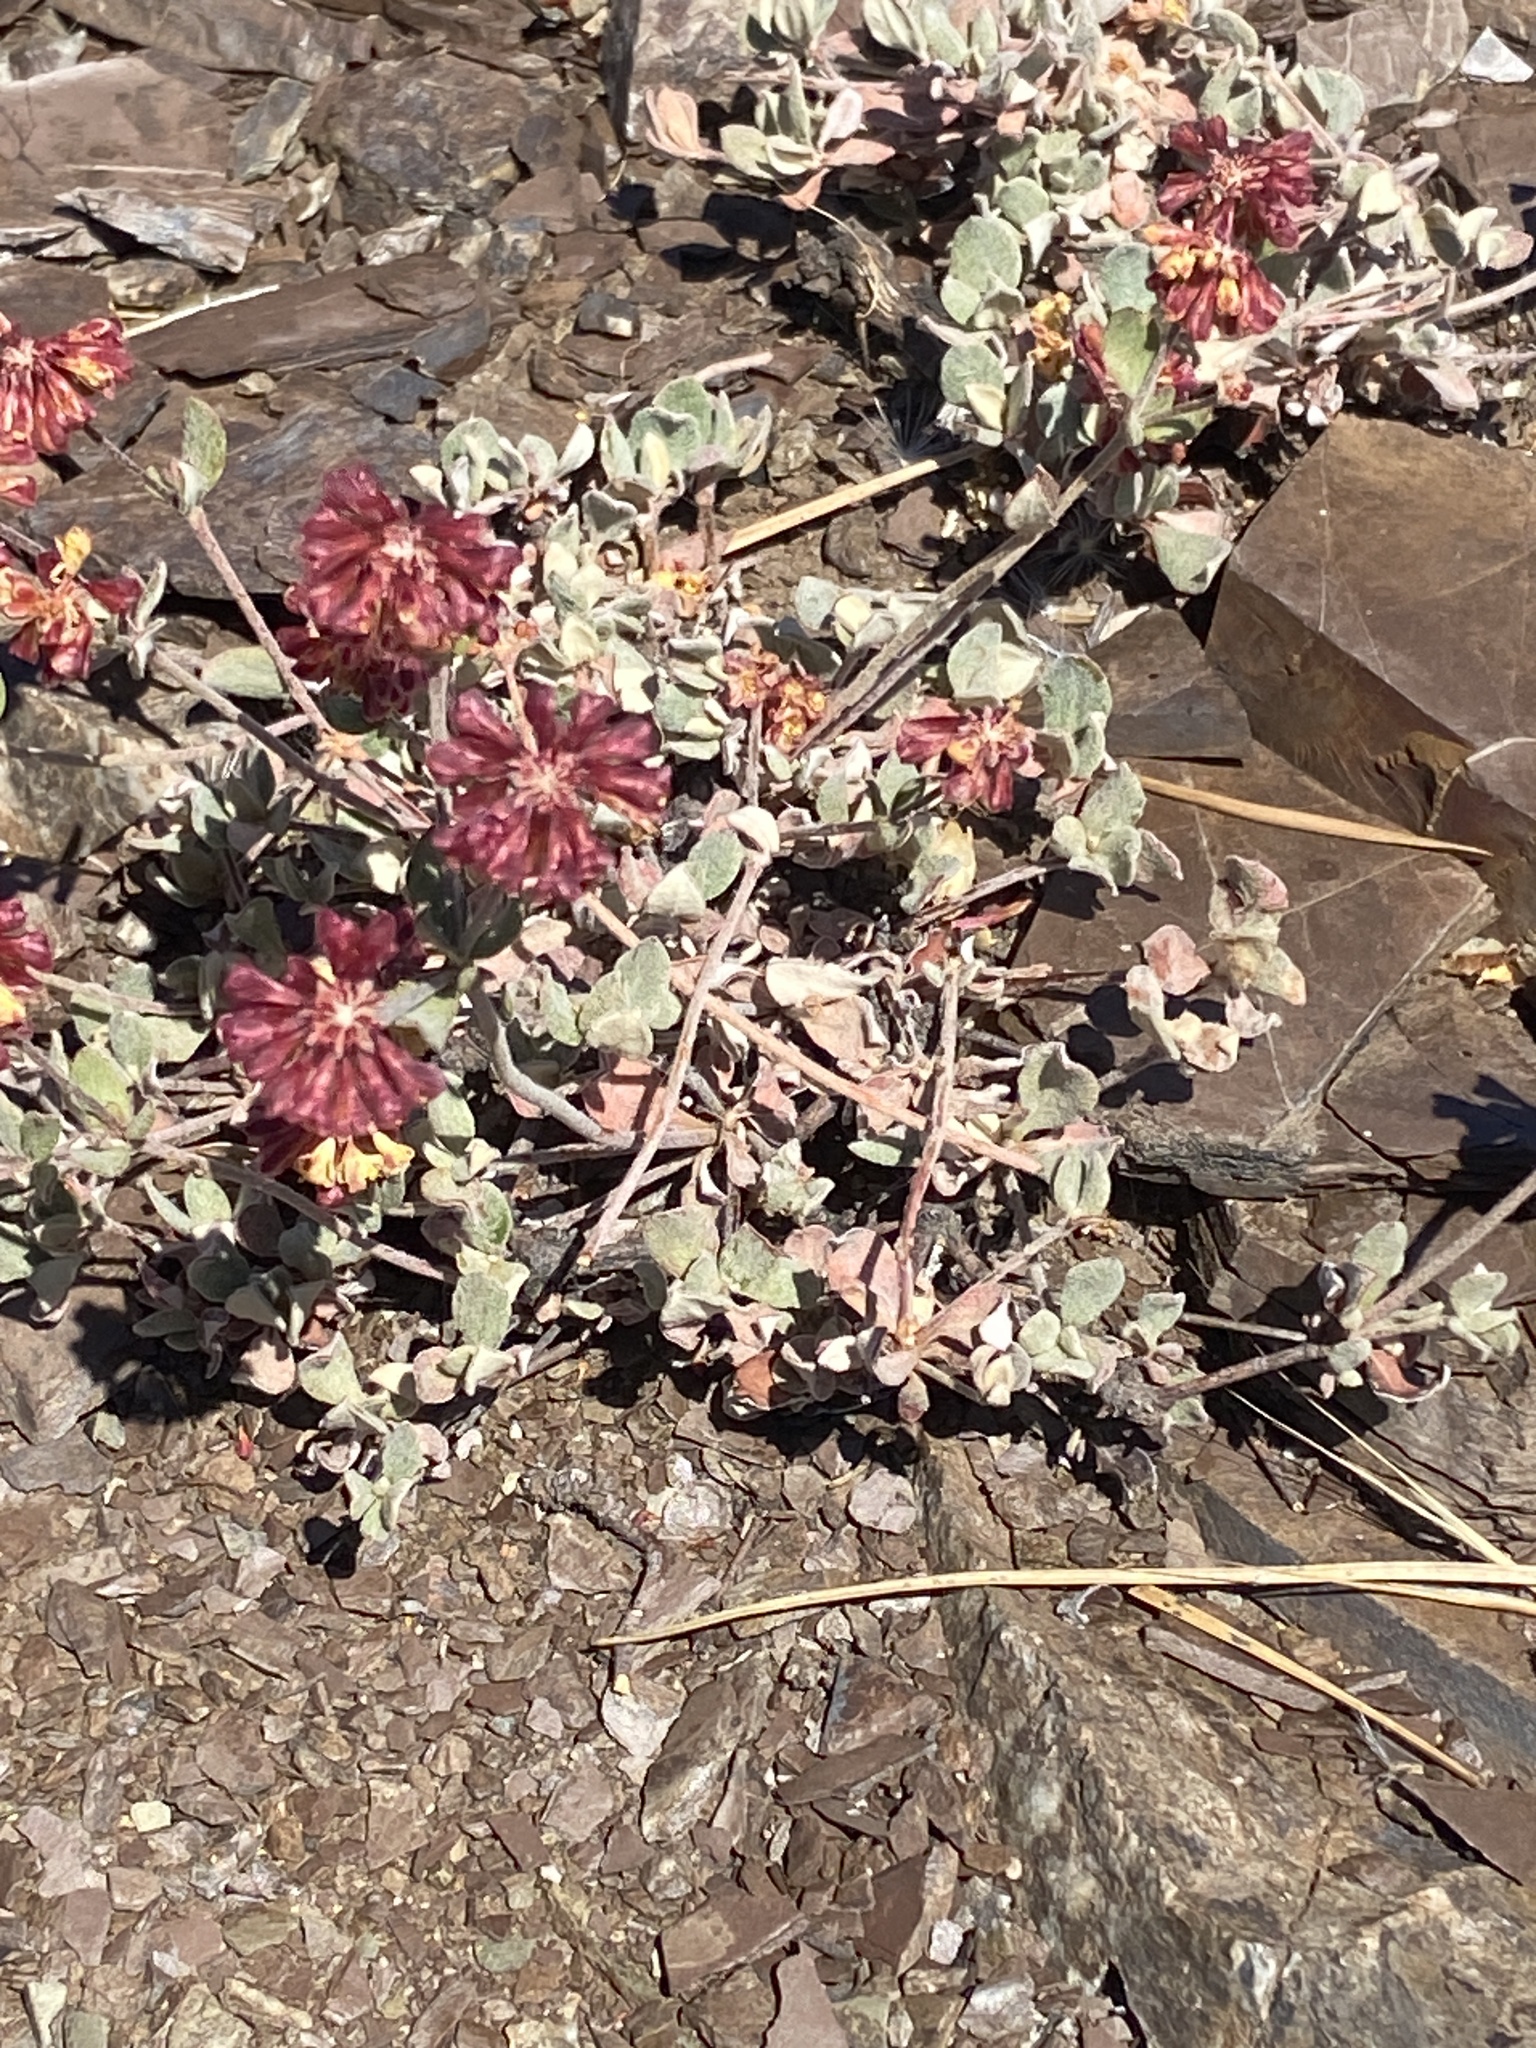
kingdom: Plantae
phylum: Tracheophyta
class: Magnoliopsida
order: Caryophyllales
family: Polygonaceae
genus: Eriogonum
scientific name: Eriogonum umbellatum
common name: Sulfur-buckwheat
